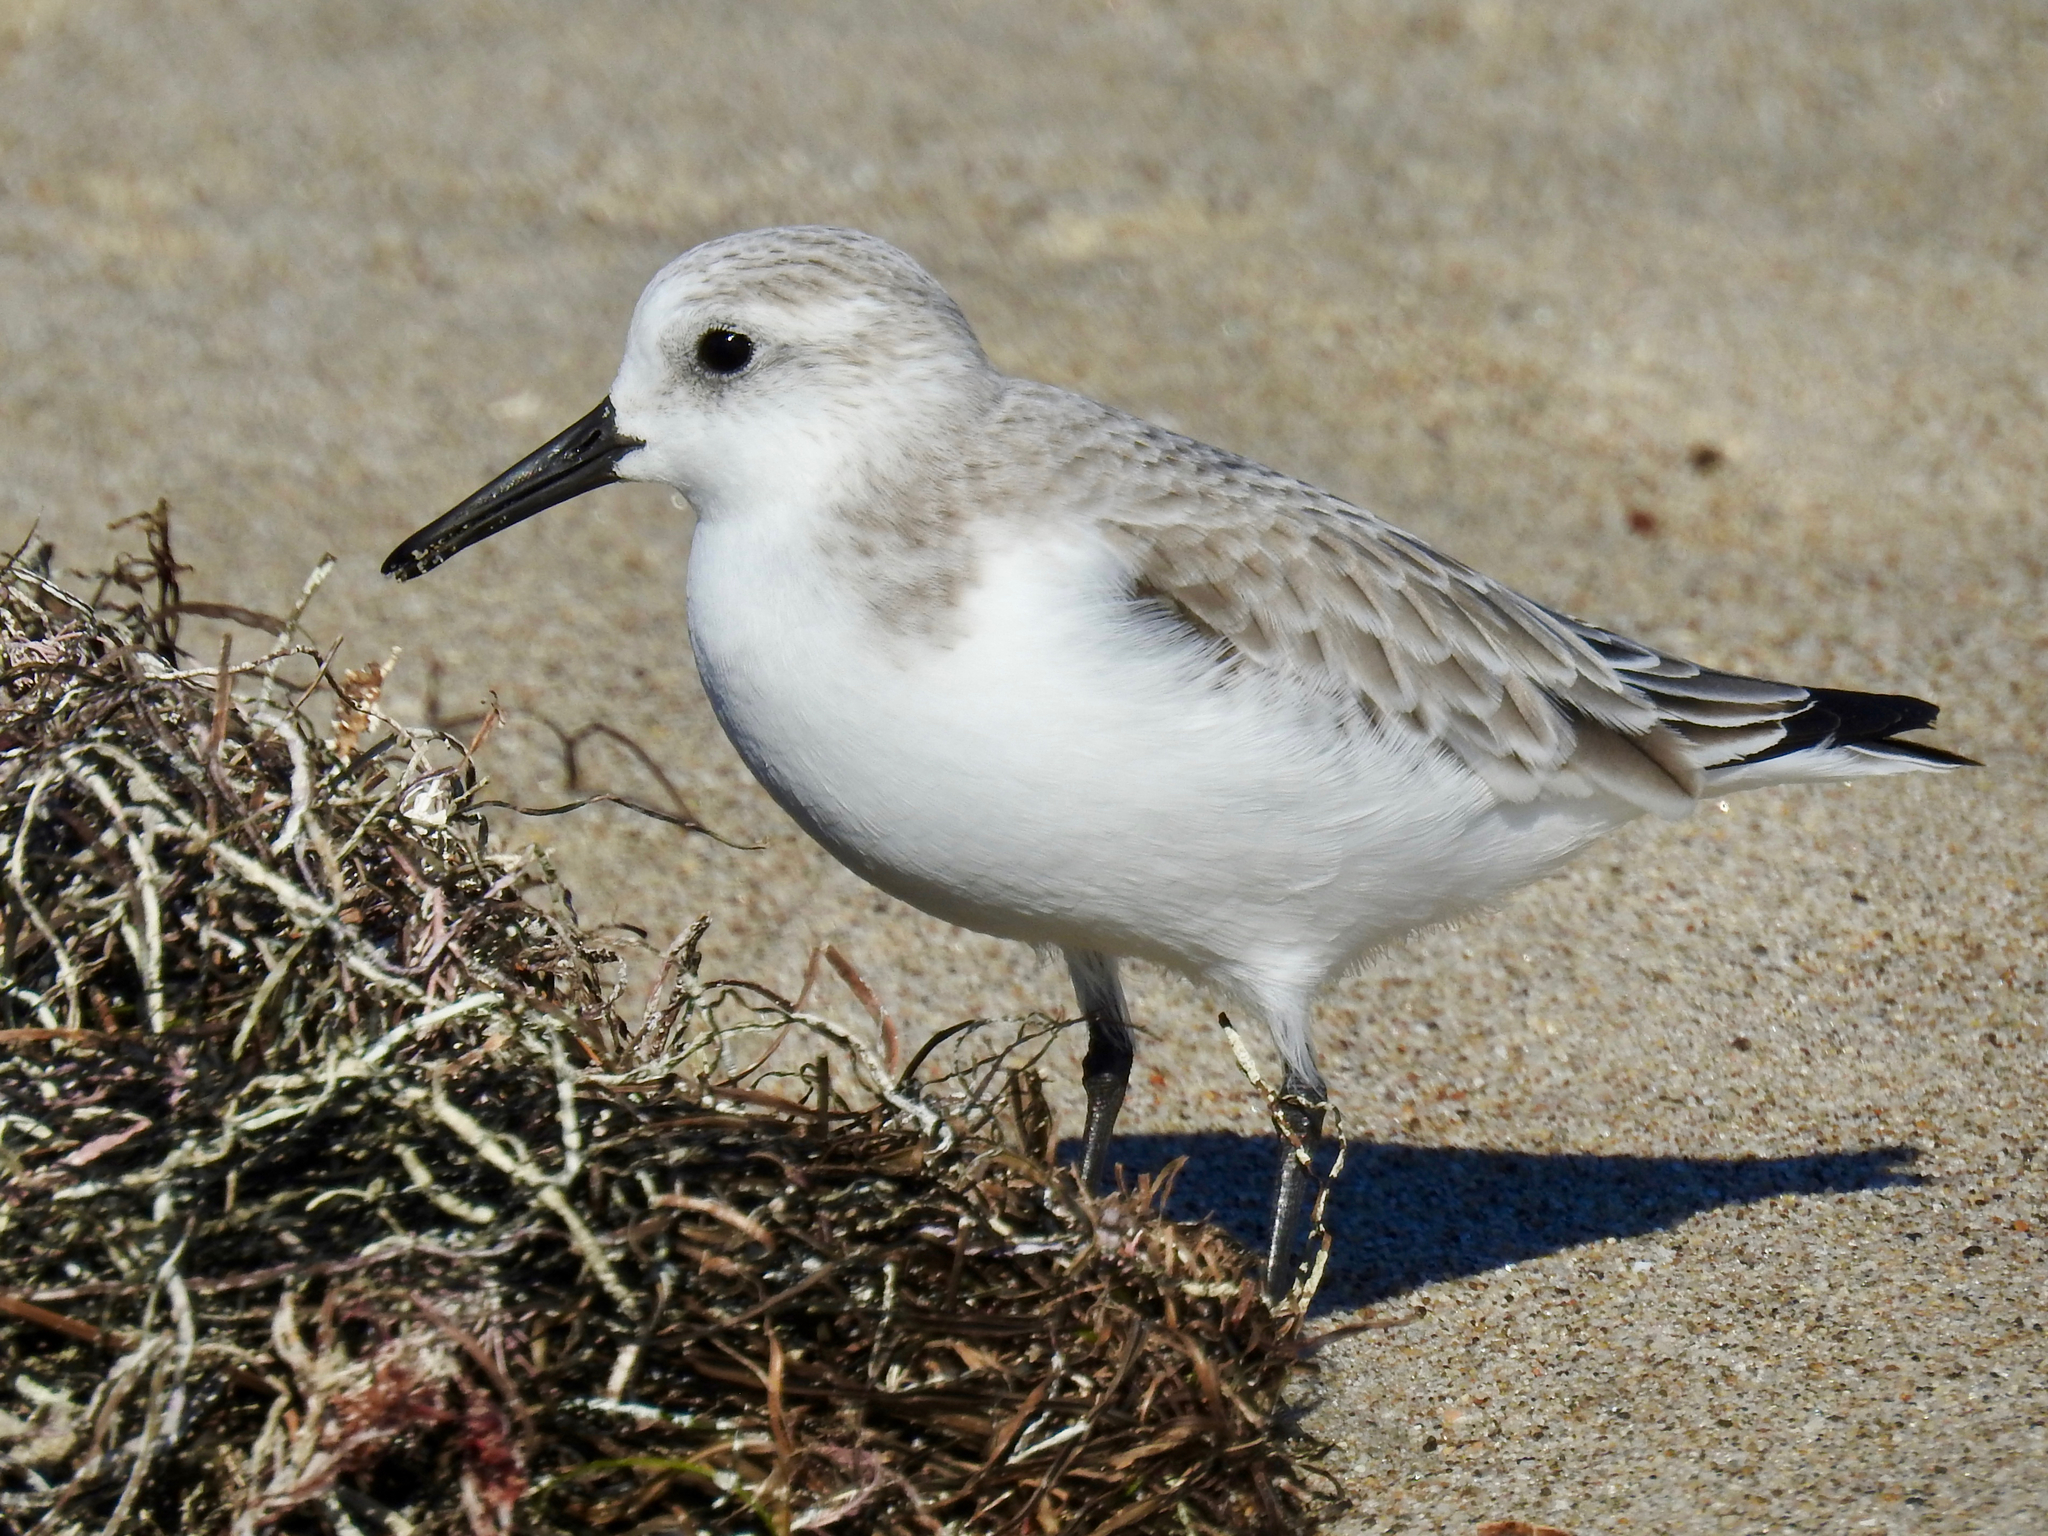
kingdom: Animalia
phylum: Chordata
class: Aves
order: Charadriiformes
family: Scolopacidae
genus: Calidris
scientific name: Calidris alba
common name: Sanderling
